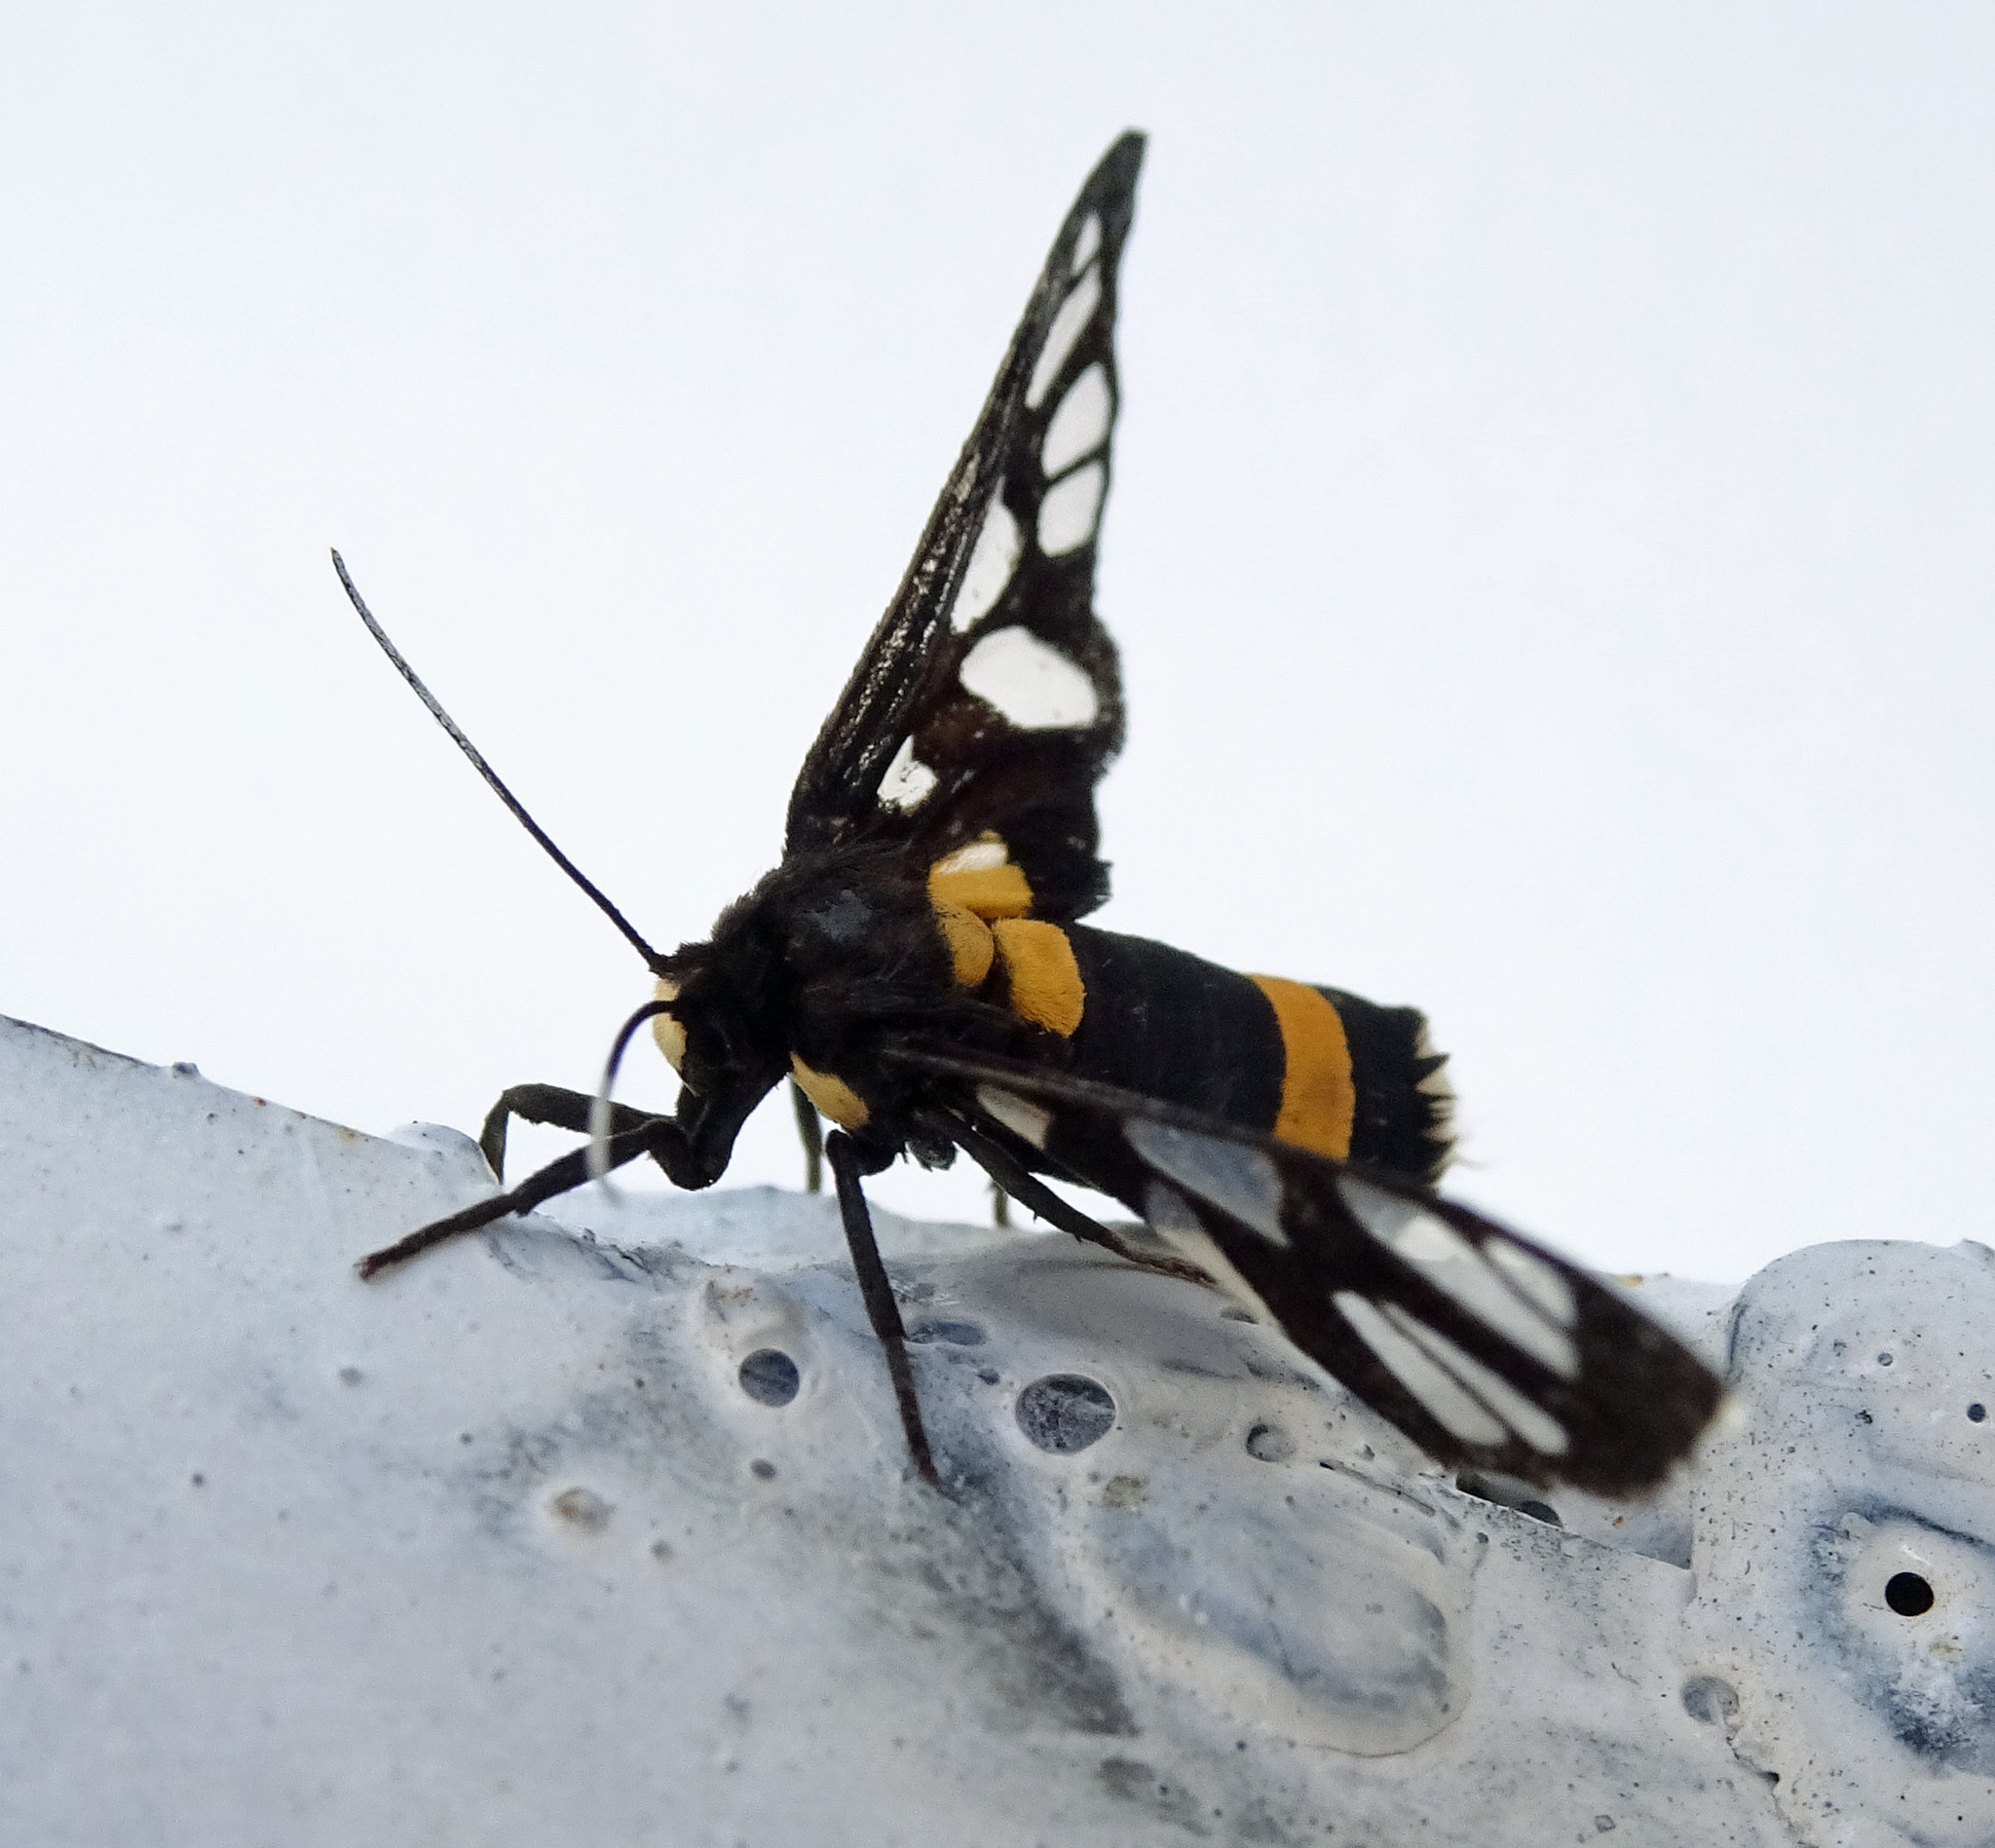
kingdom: Animalia
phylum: Arthropoda
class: Insecta
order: Lepidoptera
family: Erebidae
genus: Amata
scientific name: Amata sperbius
